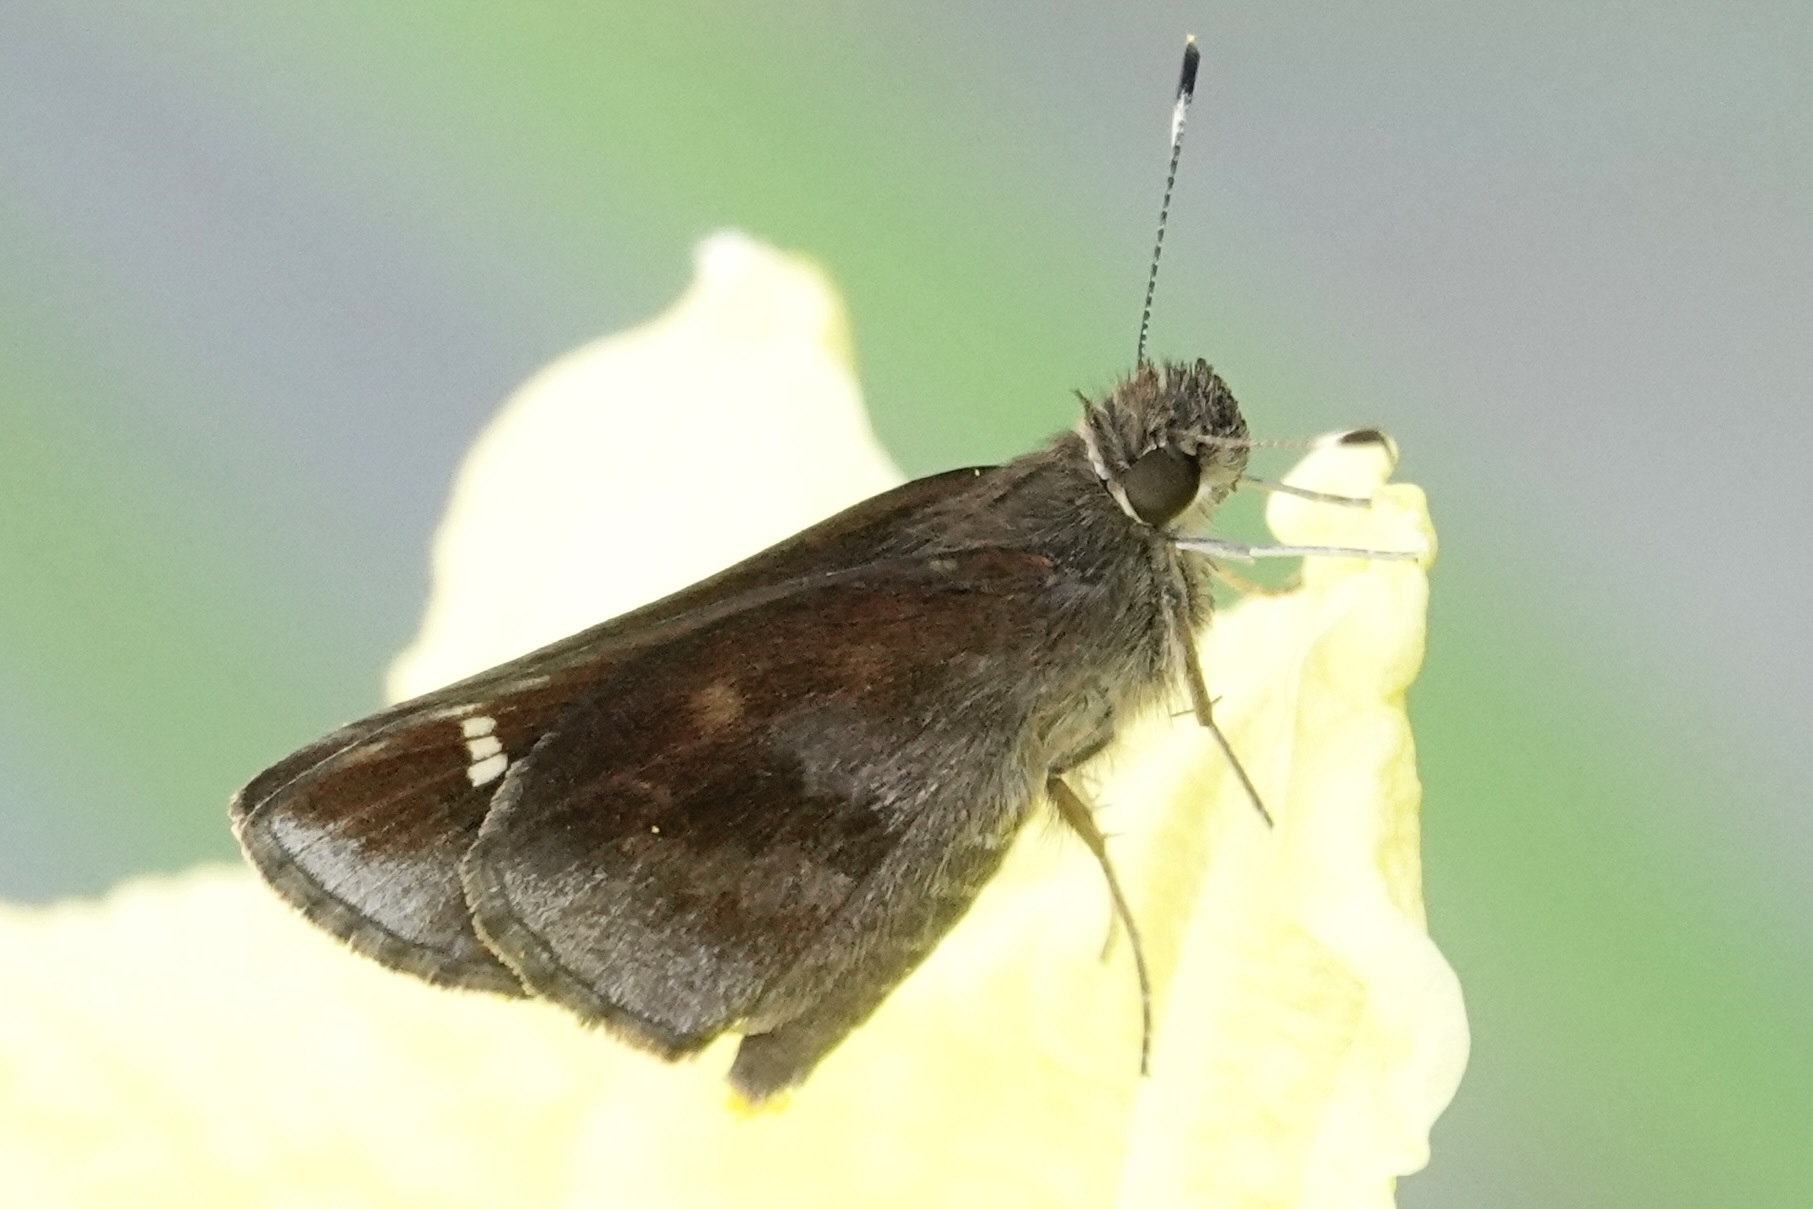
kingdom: Animalia
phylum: Arthropoda
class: Insecta
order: Lepidoptera
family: Hesperiidae
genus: Lerema
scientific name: Lerema accius
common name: Clouded skipper
